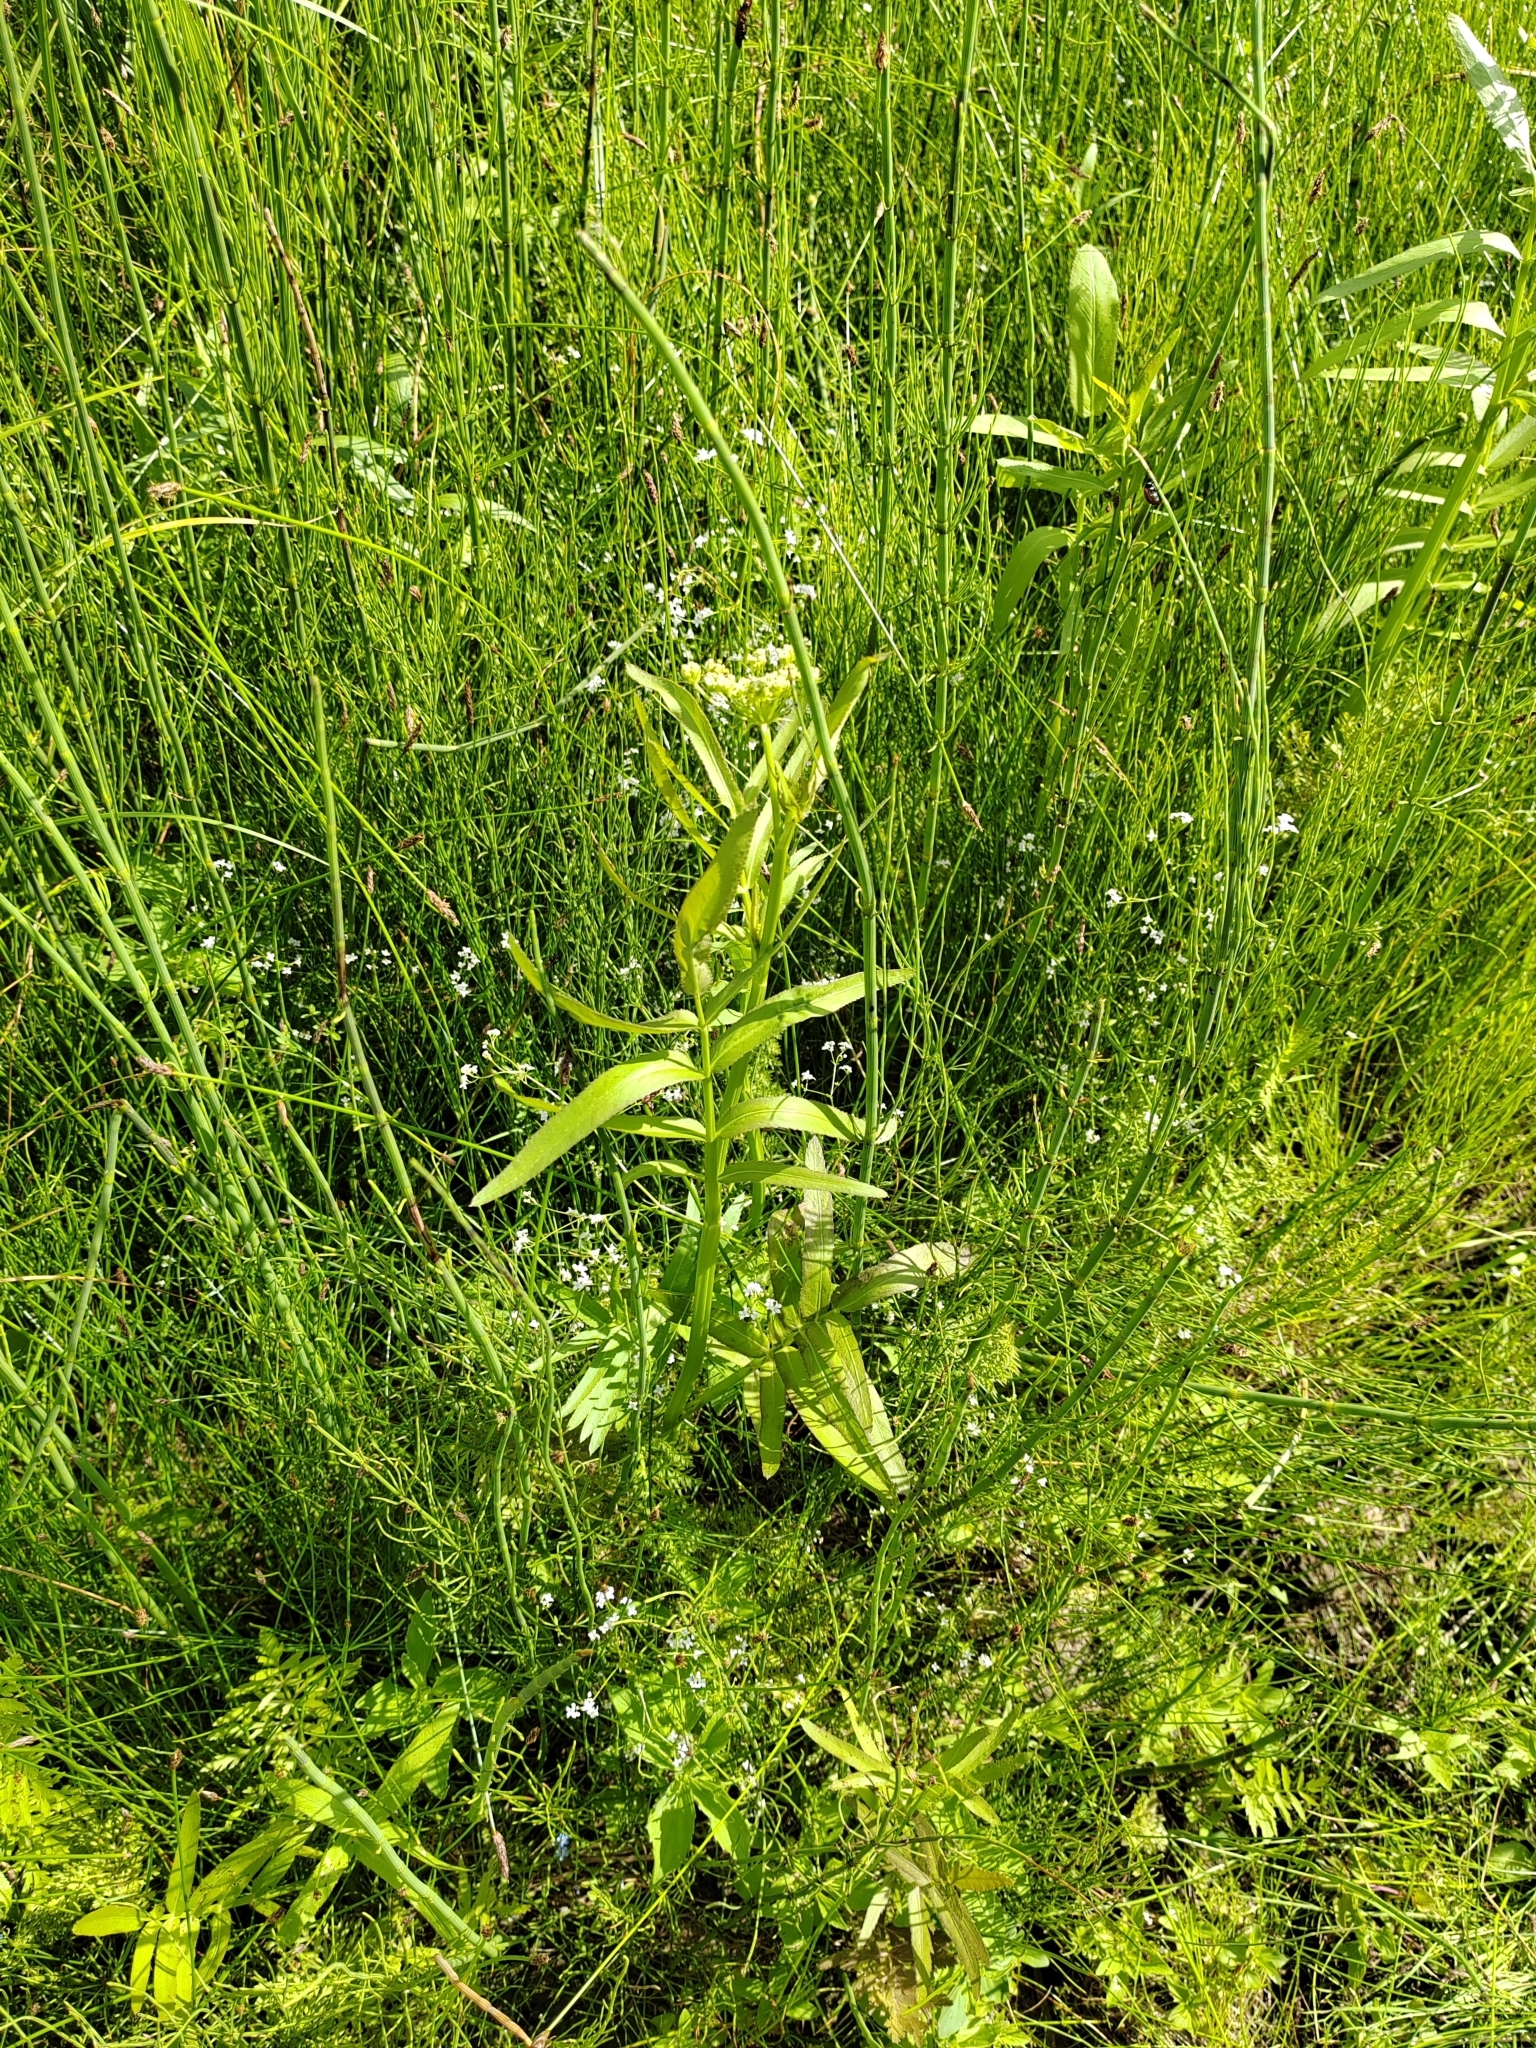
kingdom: Plantae
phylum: Tracheophyta
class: Magnoliopsida
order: Apiales
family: Apiaceae
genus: Sium
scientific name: Sium latifolium
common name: Greater water-parsnip
